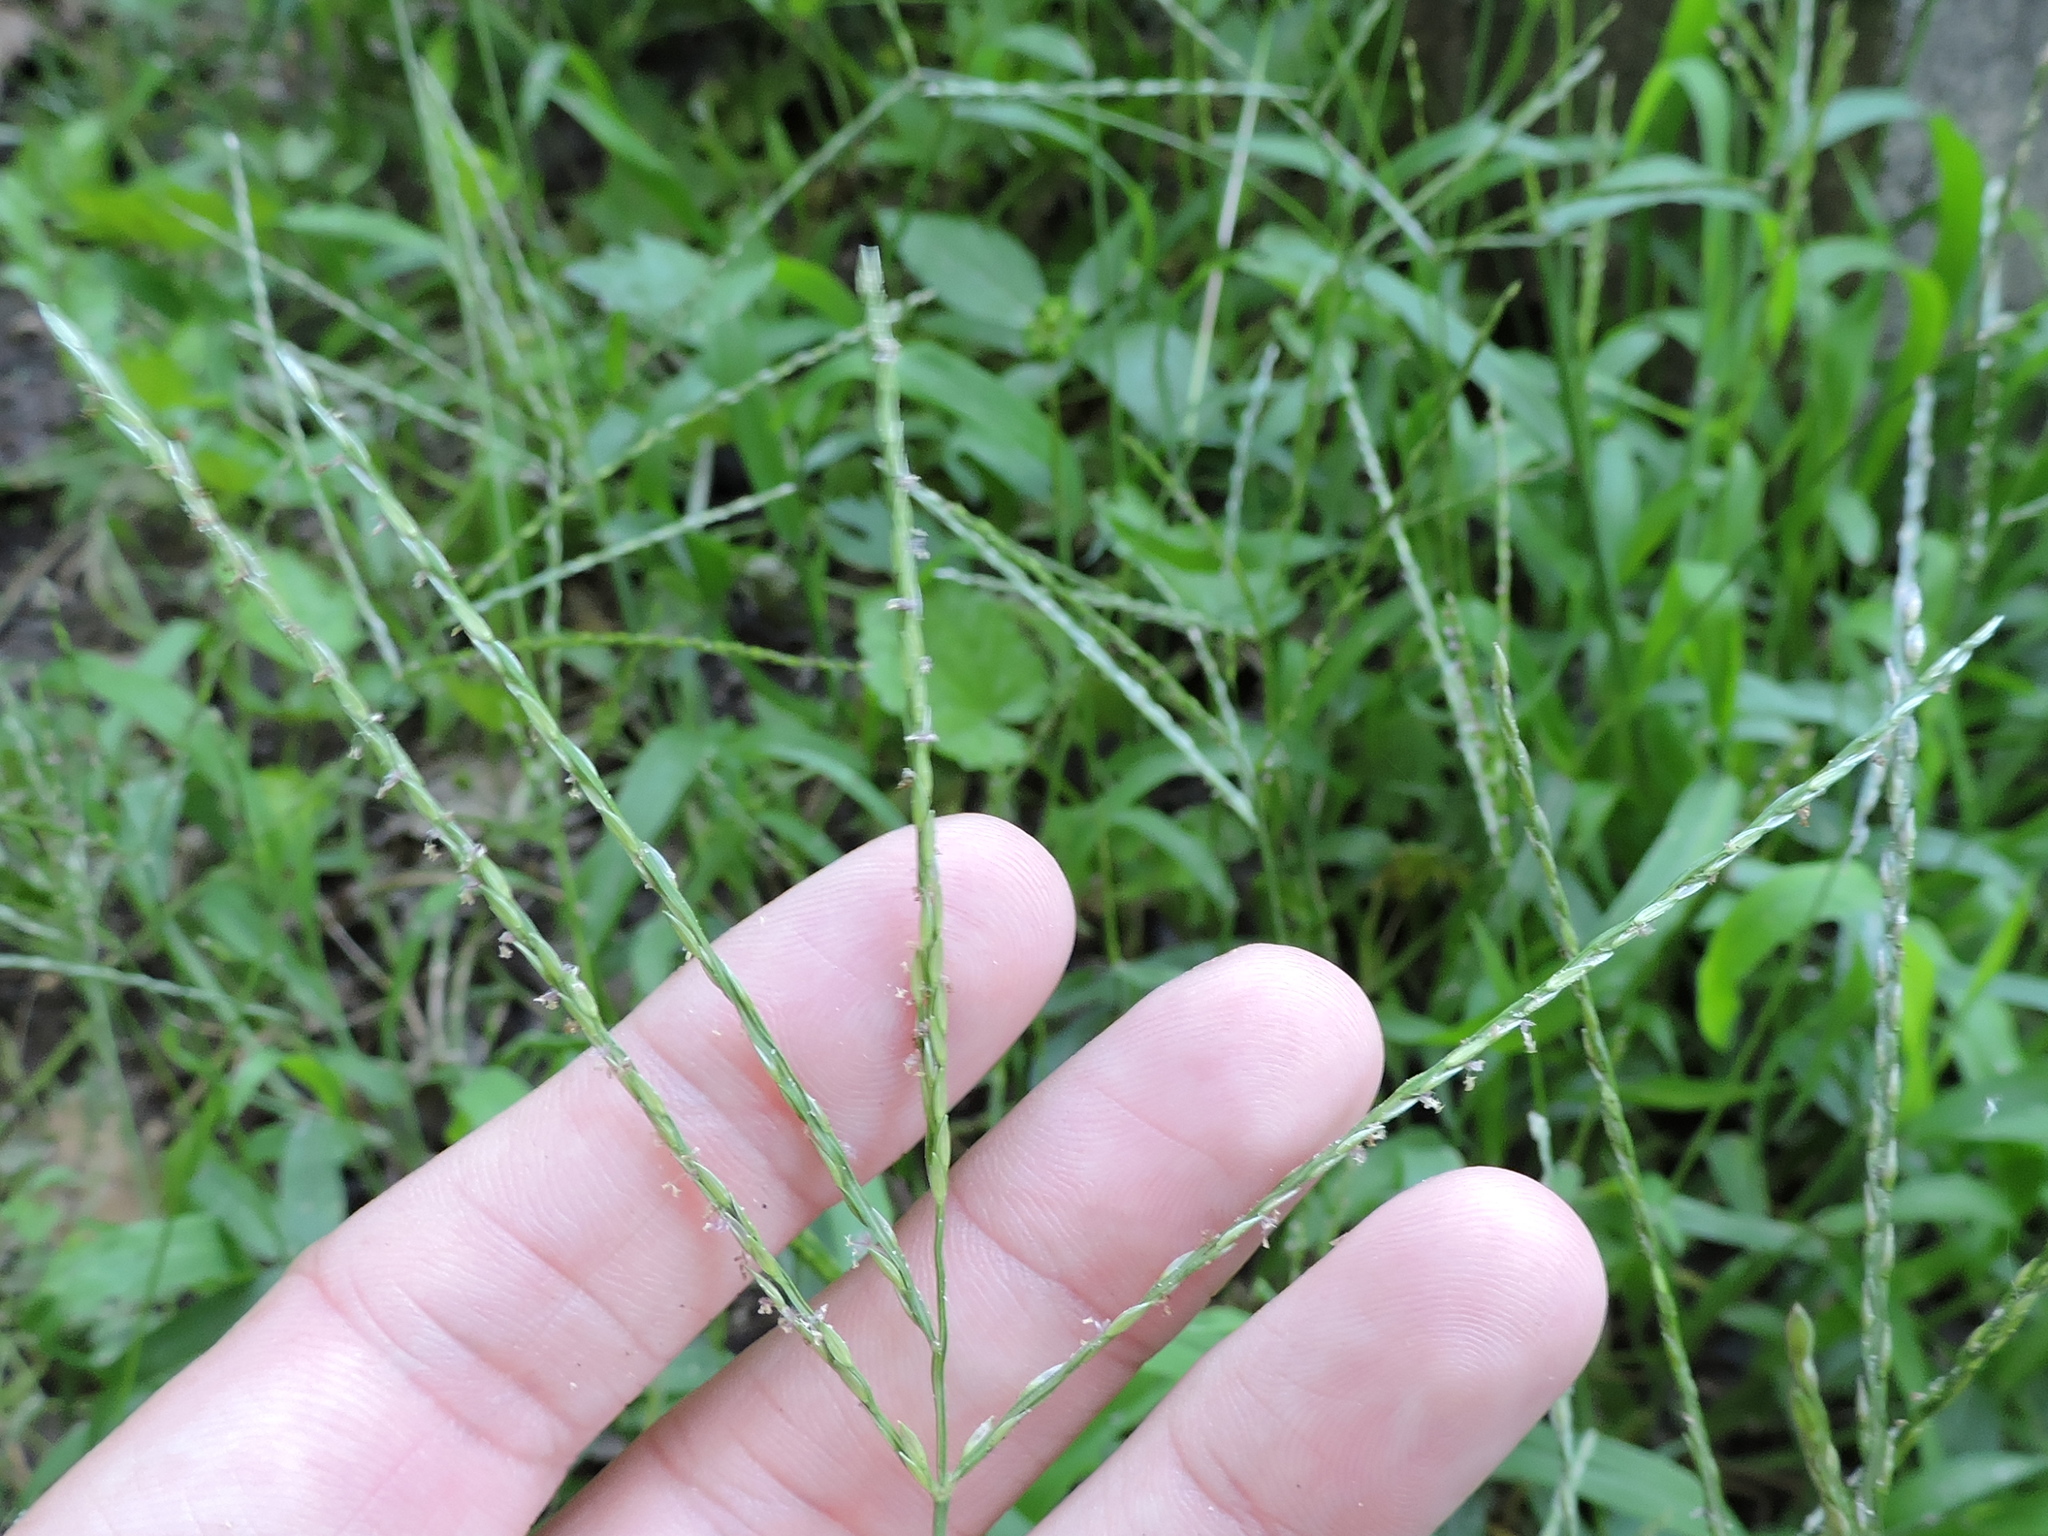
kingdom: Plantae
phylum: Tracheophyta
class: Liliopsida
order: Poales
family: Poaceae
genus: Digitaria
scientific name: Digitaria ciliaris
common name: Tropical finger-grass
